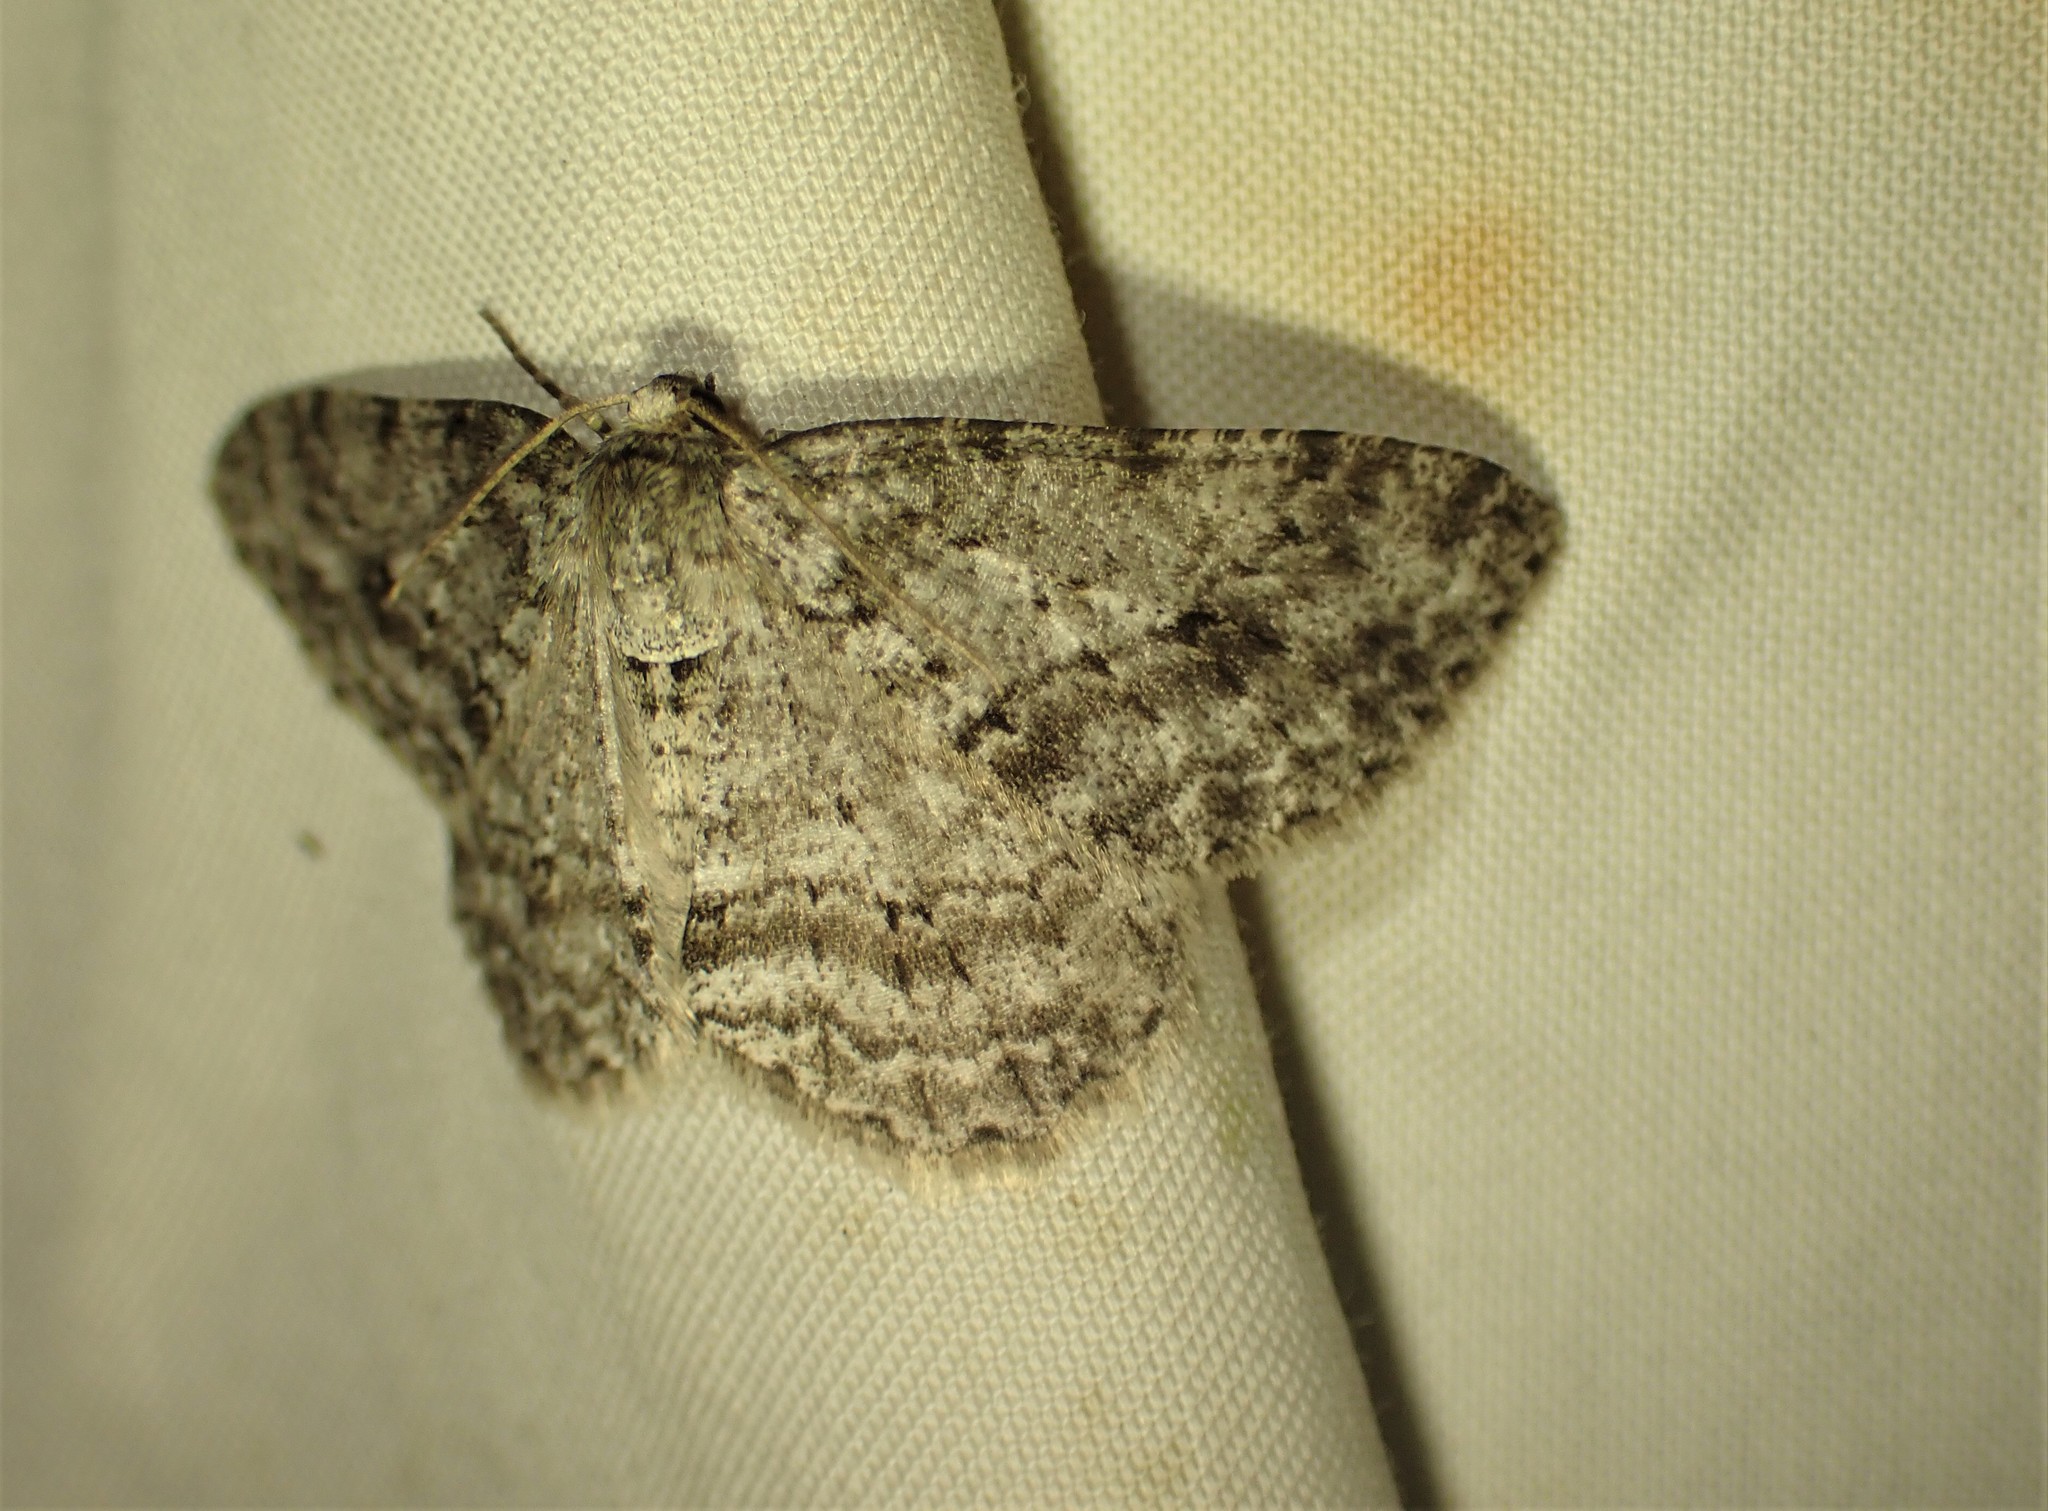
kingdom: Animalia
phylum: Arthropoda
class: Insecta
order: Lepidoptera
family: Geometridae
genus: Ectropis
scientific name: Ectropis crepuscularia
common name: Engrailed
